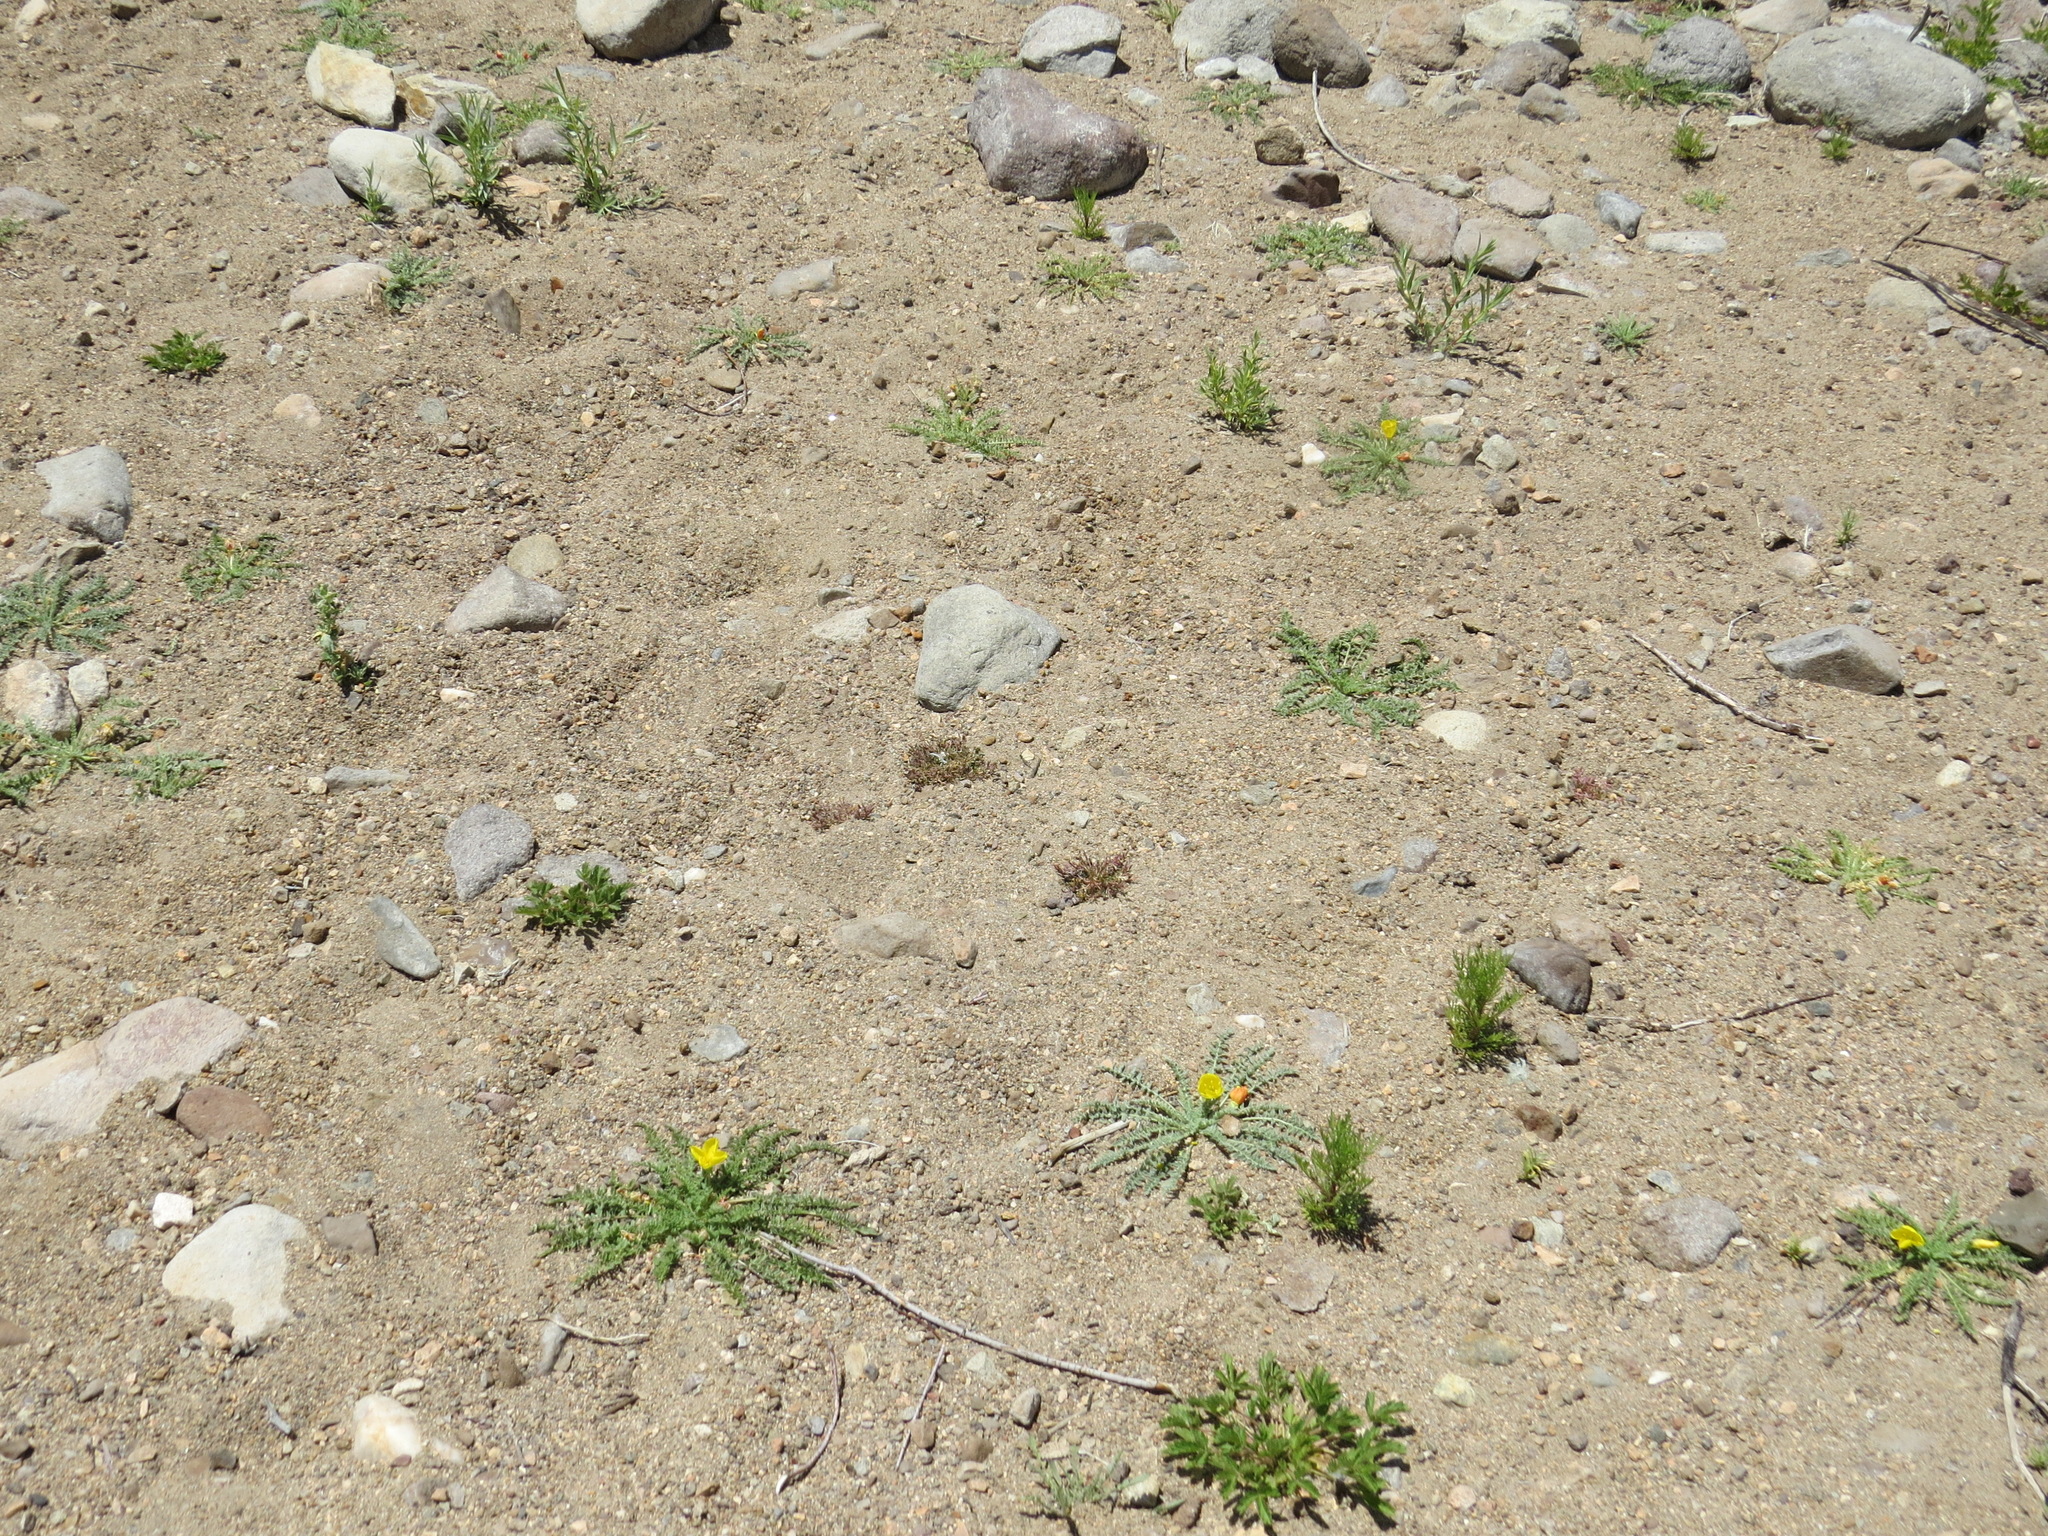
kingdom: Plantae
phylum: Tracheophyta
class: Magnoliopsida
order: Myrtales
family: Onagraceae
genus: Taraxia
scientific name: Taraxia tanacetifolia
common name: Tansyleaf evening primrose
